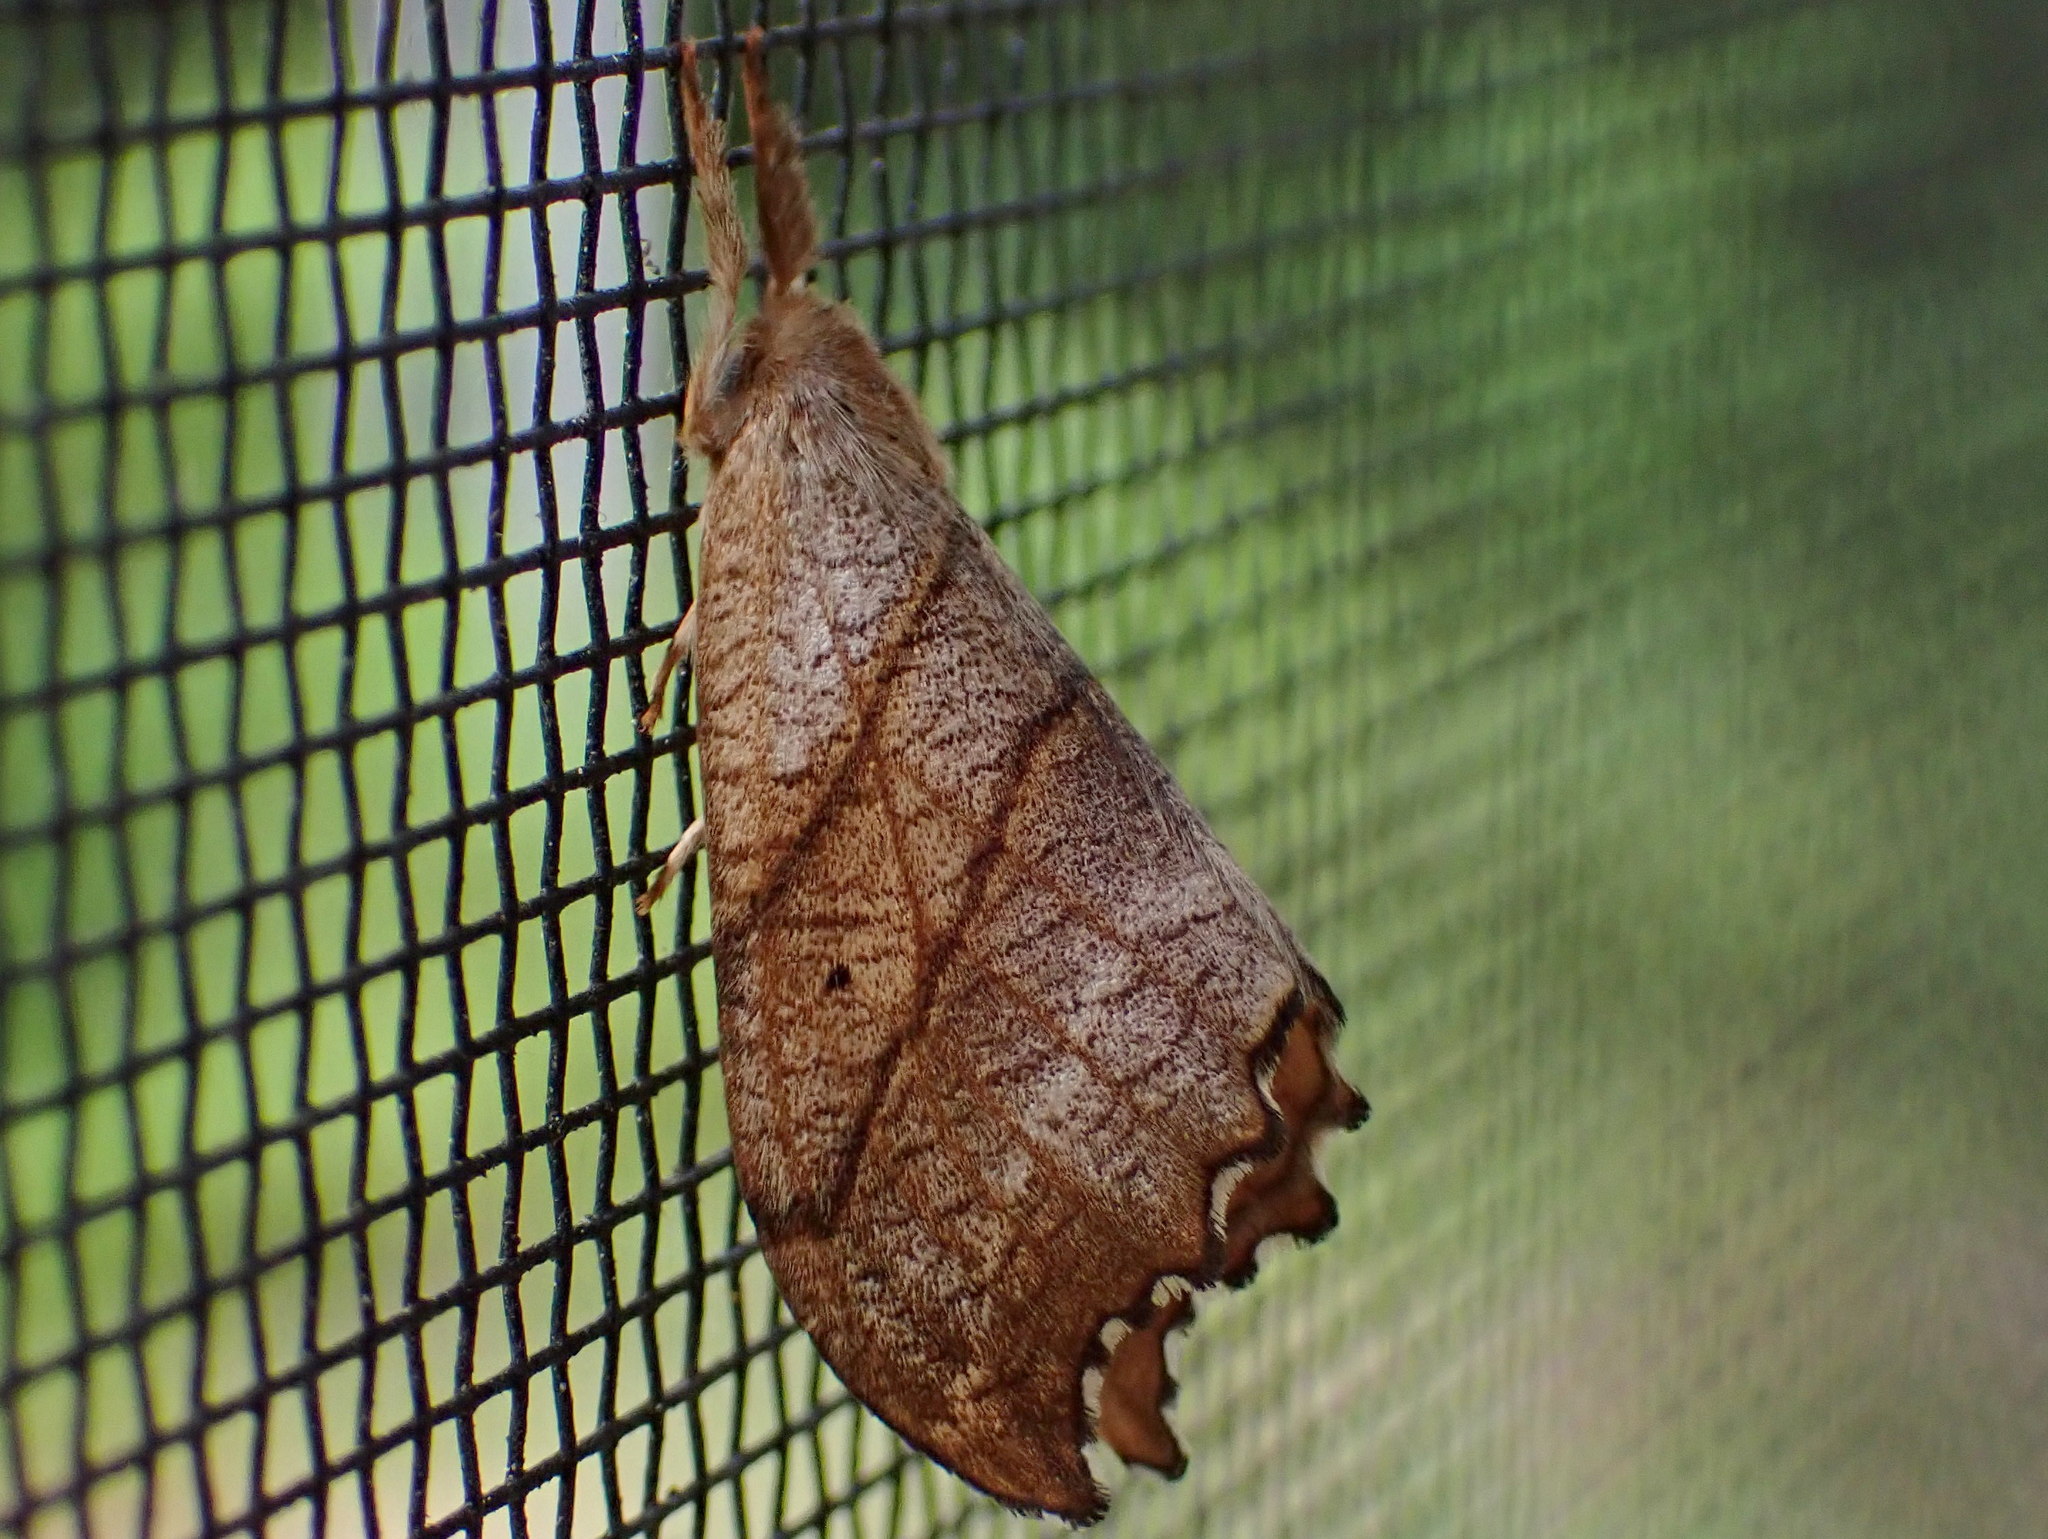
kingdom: Animalia
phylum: Arthropoda
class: Insecta
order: Lepidoptera
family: Drepanidae
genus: Falcaria
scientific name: Falcaria bilineata
